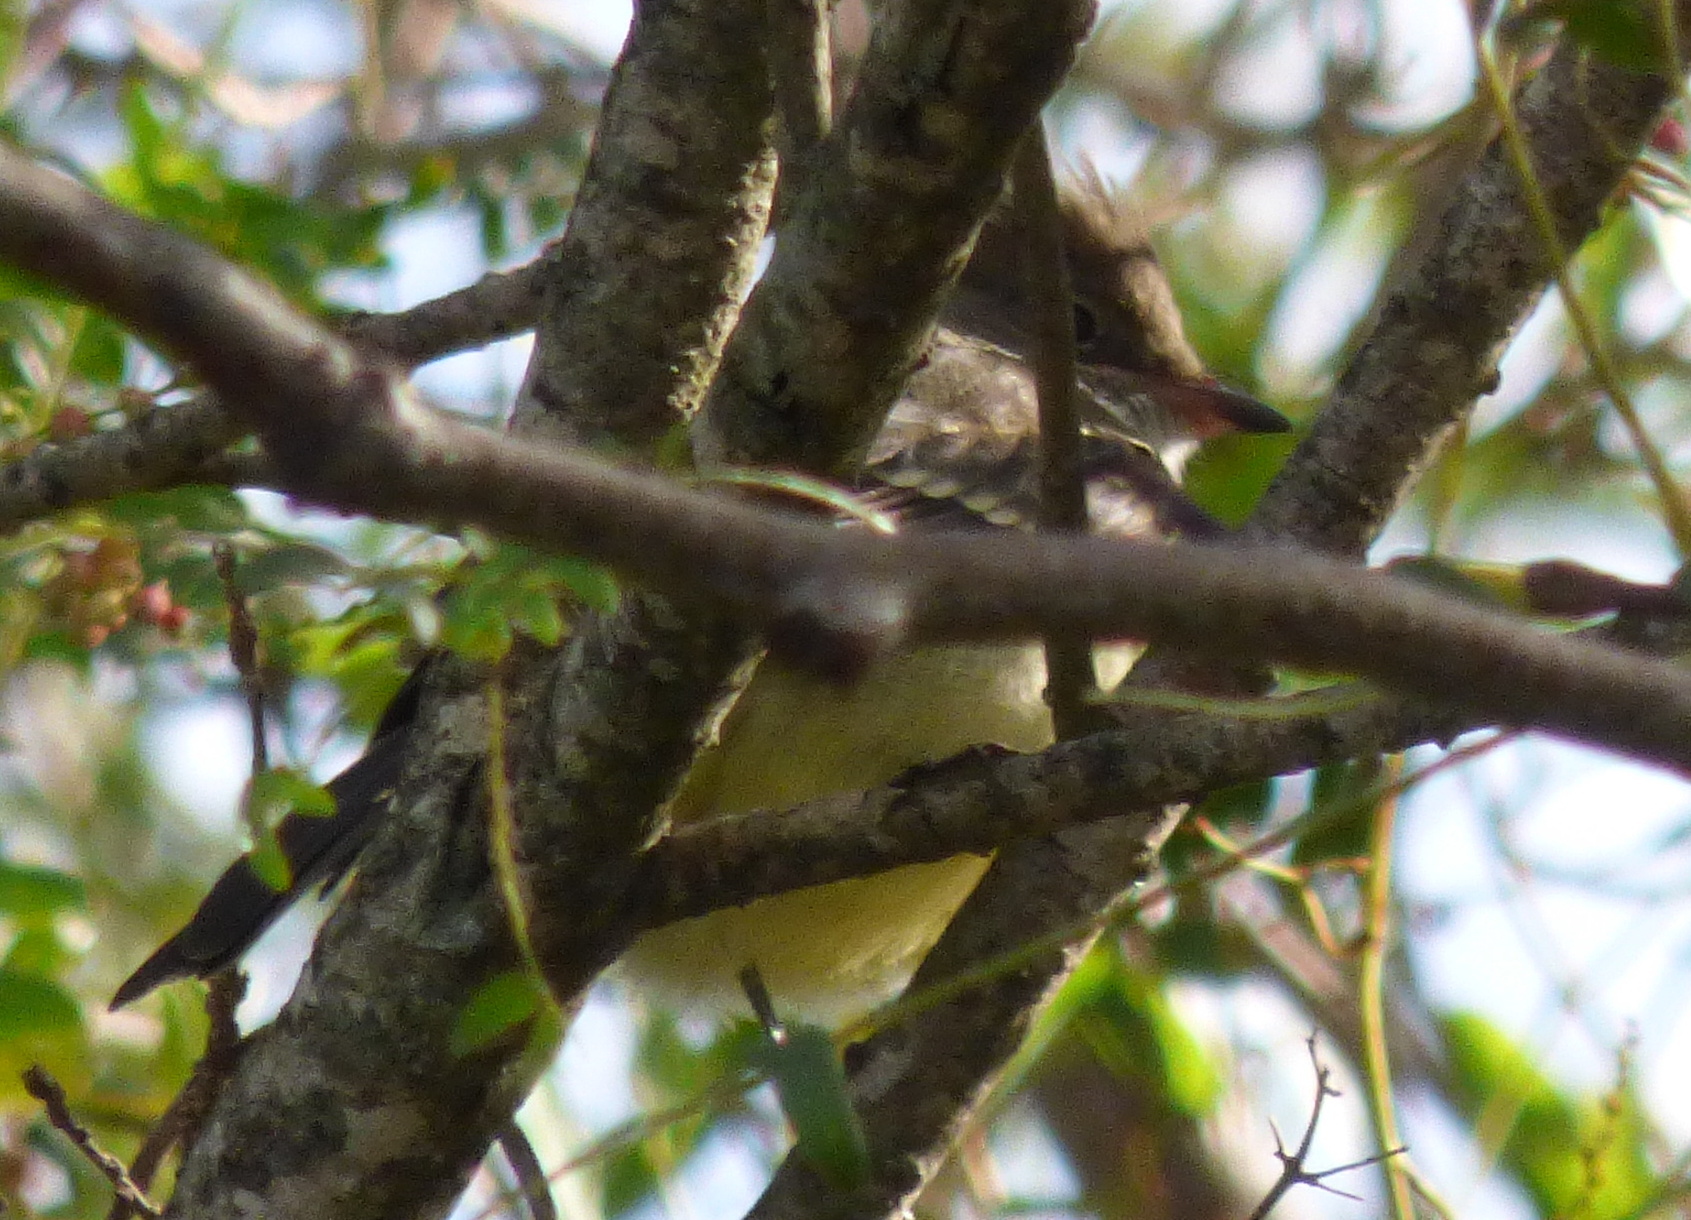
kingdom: Animalia
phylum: Chordata
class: Aves
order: Passeriformes
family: Tyrannidae
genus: Elaenia
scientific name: Elaenia parvirostris
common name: Small-billed elaenia
